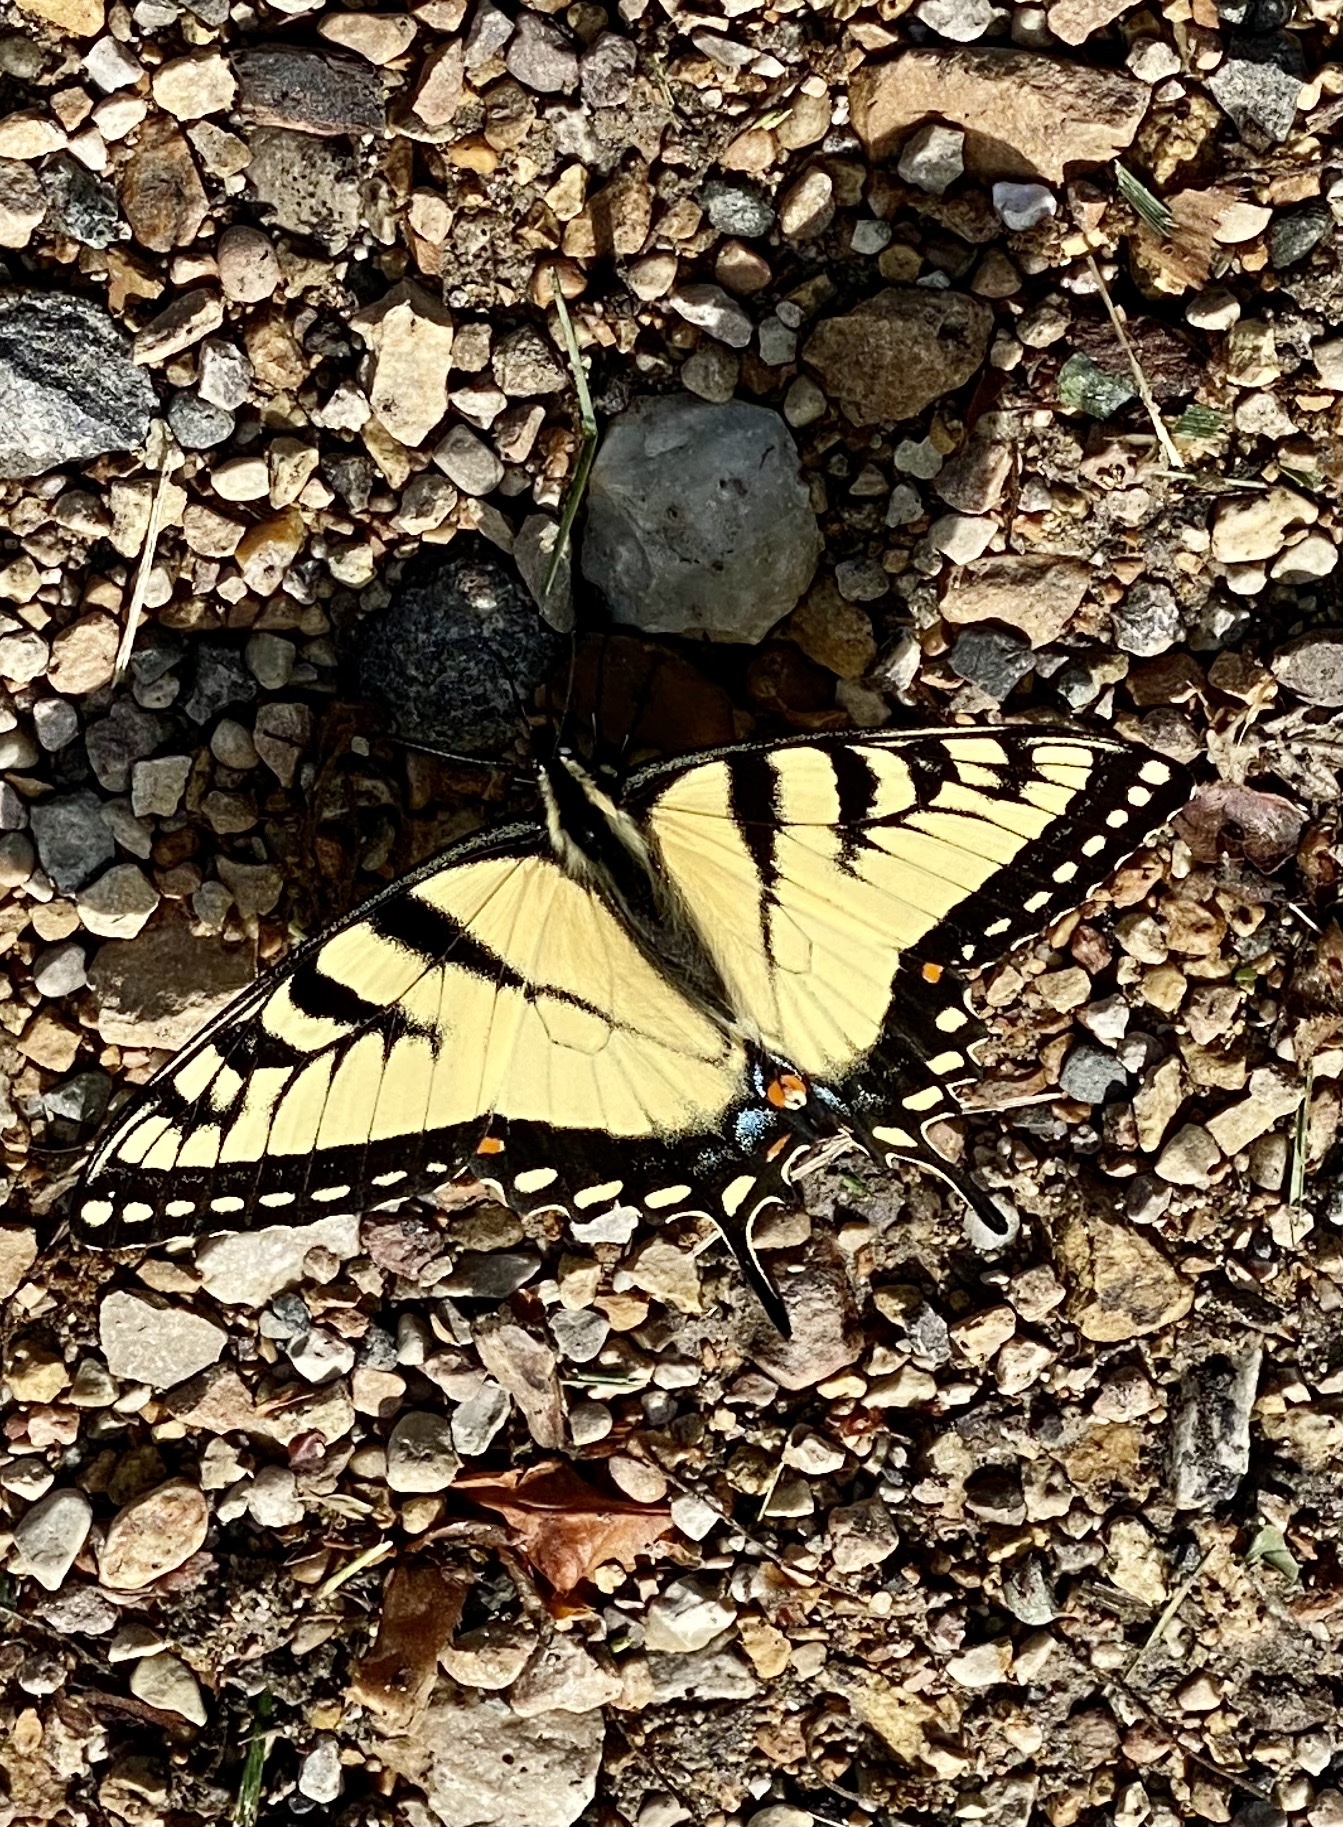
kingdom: Animalia
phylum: Arthropoda
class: Insecta
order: Lepidoptera
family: Papilionidae
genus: Papilio
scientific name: Papilio glaucus
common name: Tiger swallowtail
